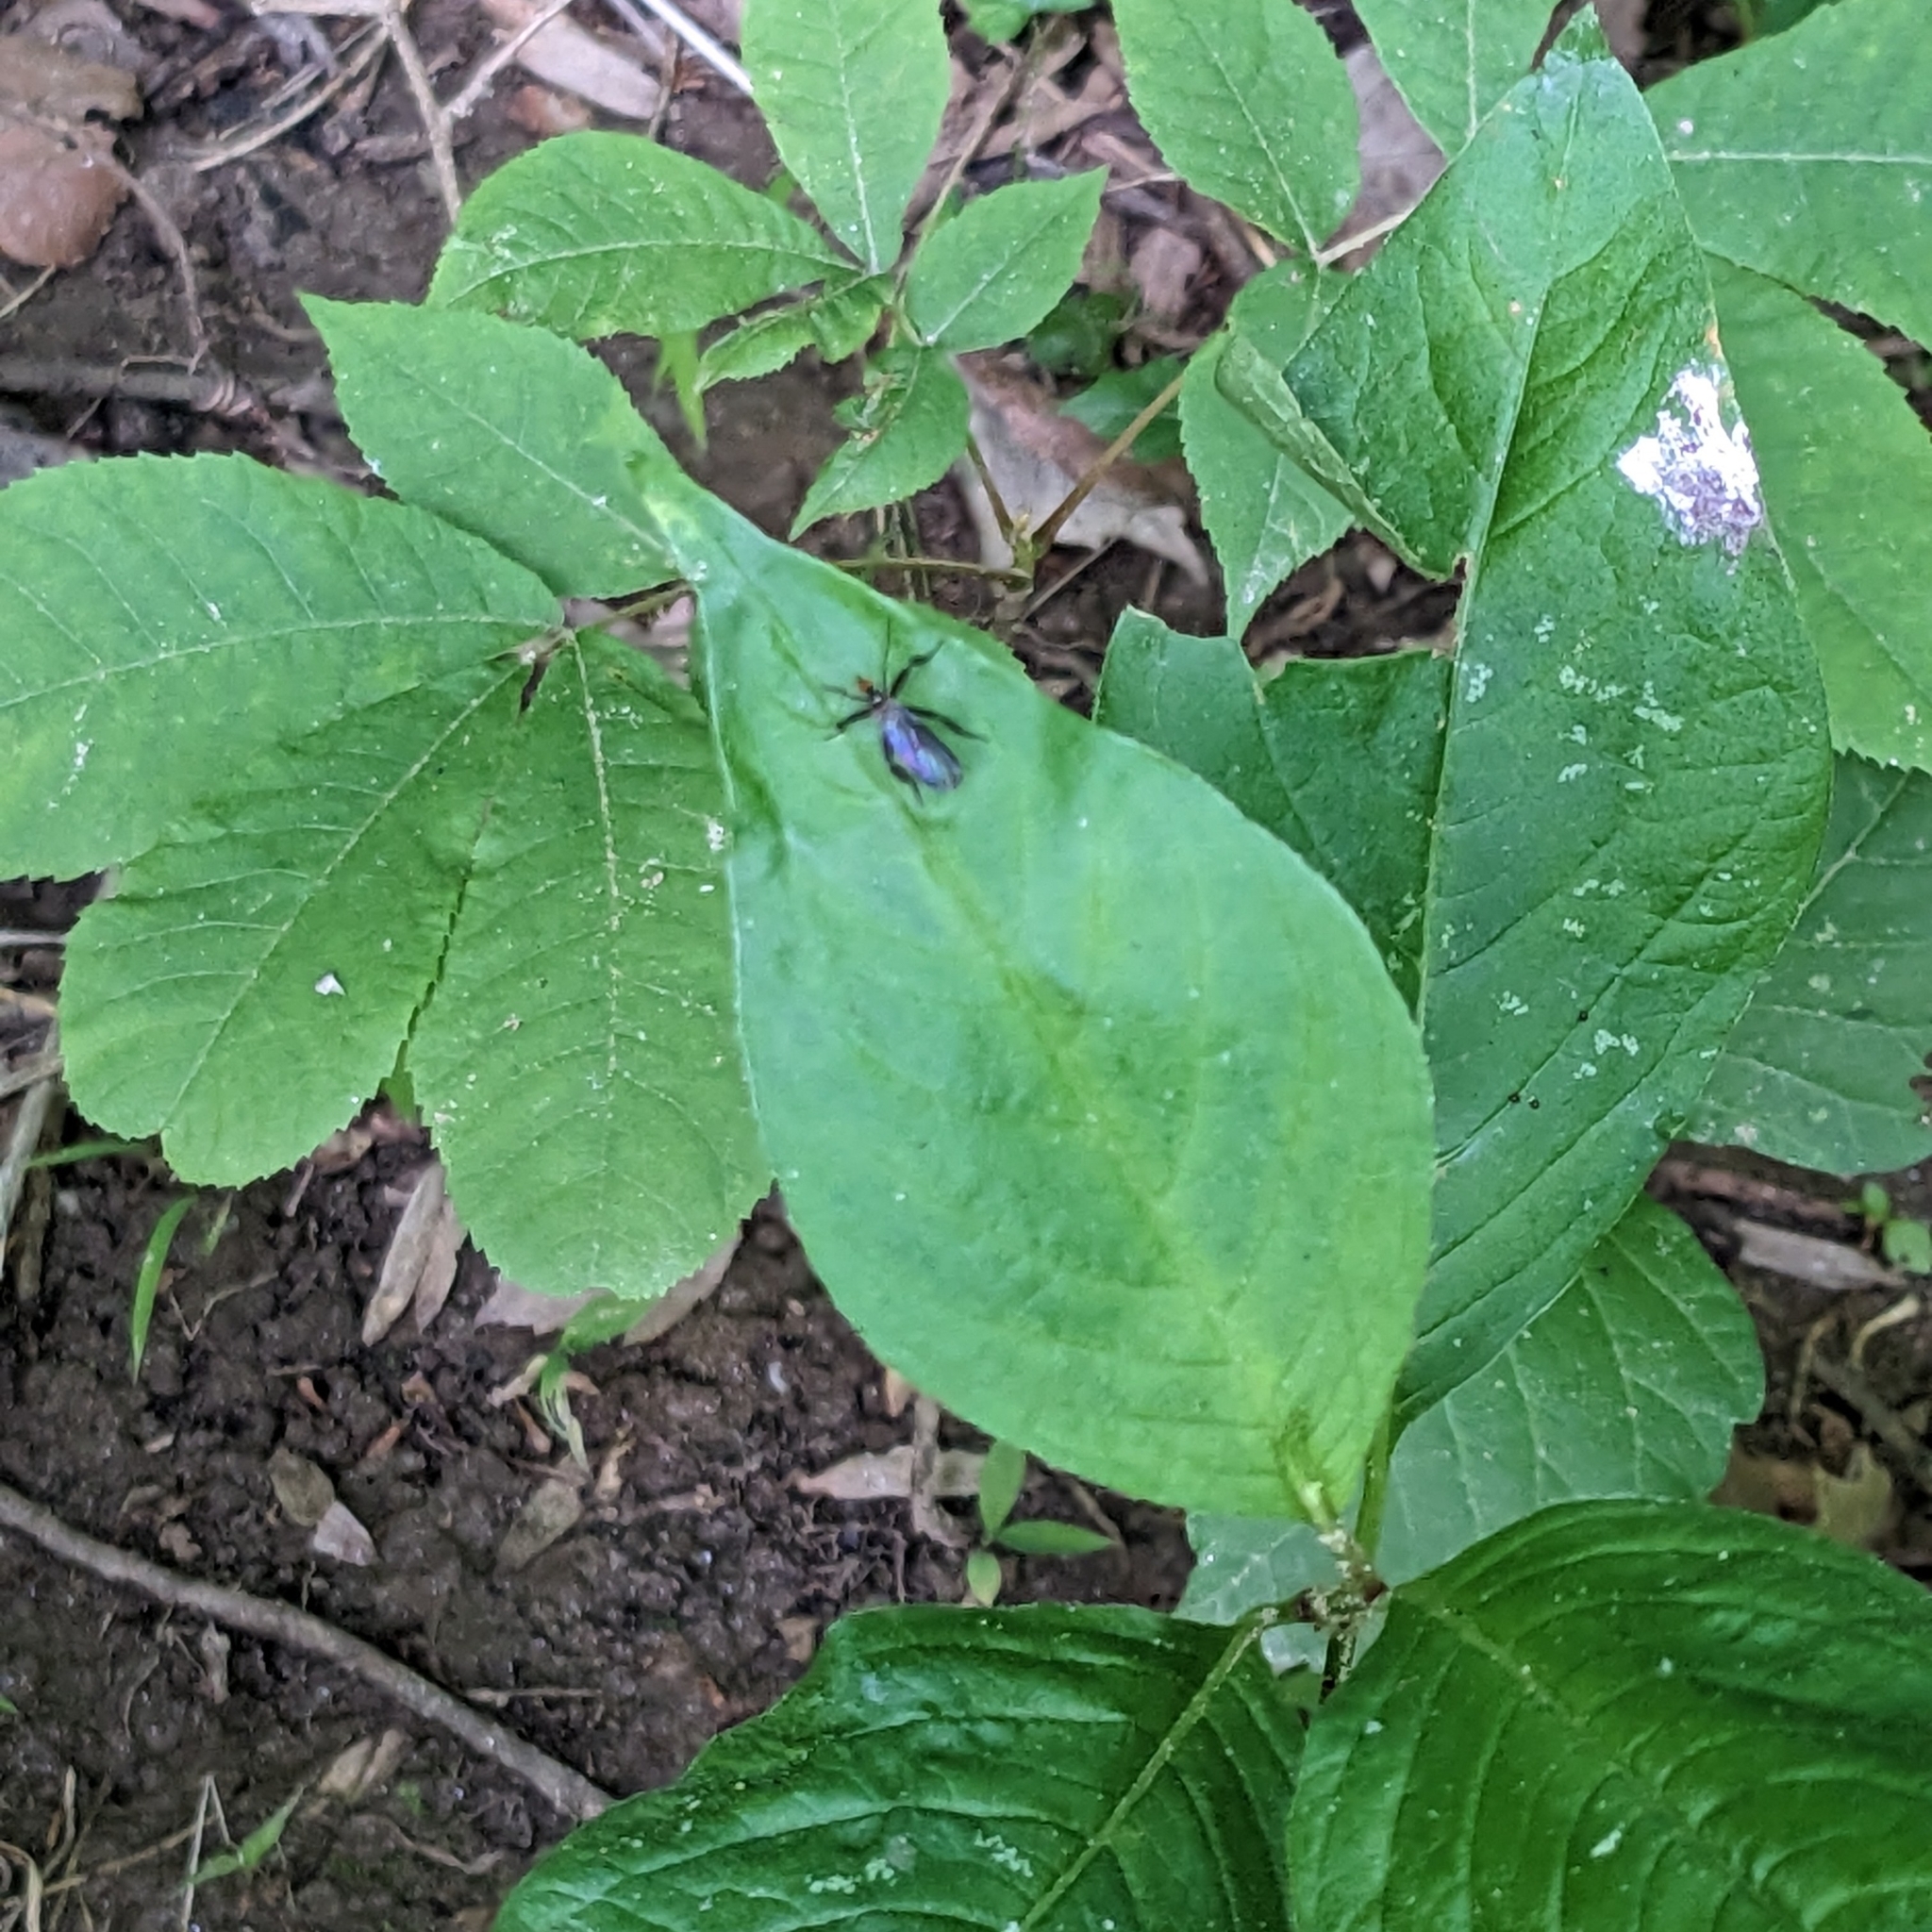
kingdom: Animalia
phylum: Arthropoda
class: Insecta
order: Diptera
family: Empididae
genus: Rhamphomyia
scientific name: Rhamphomyia longicauda
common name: Long-tailed dance fly
